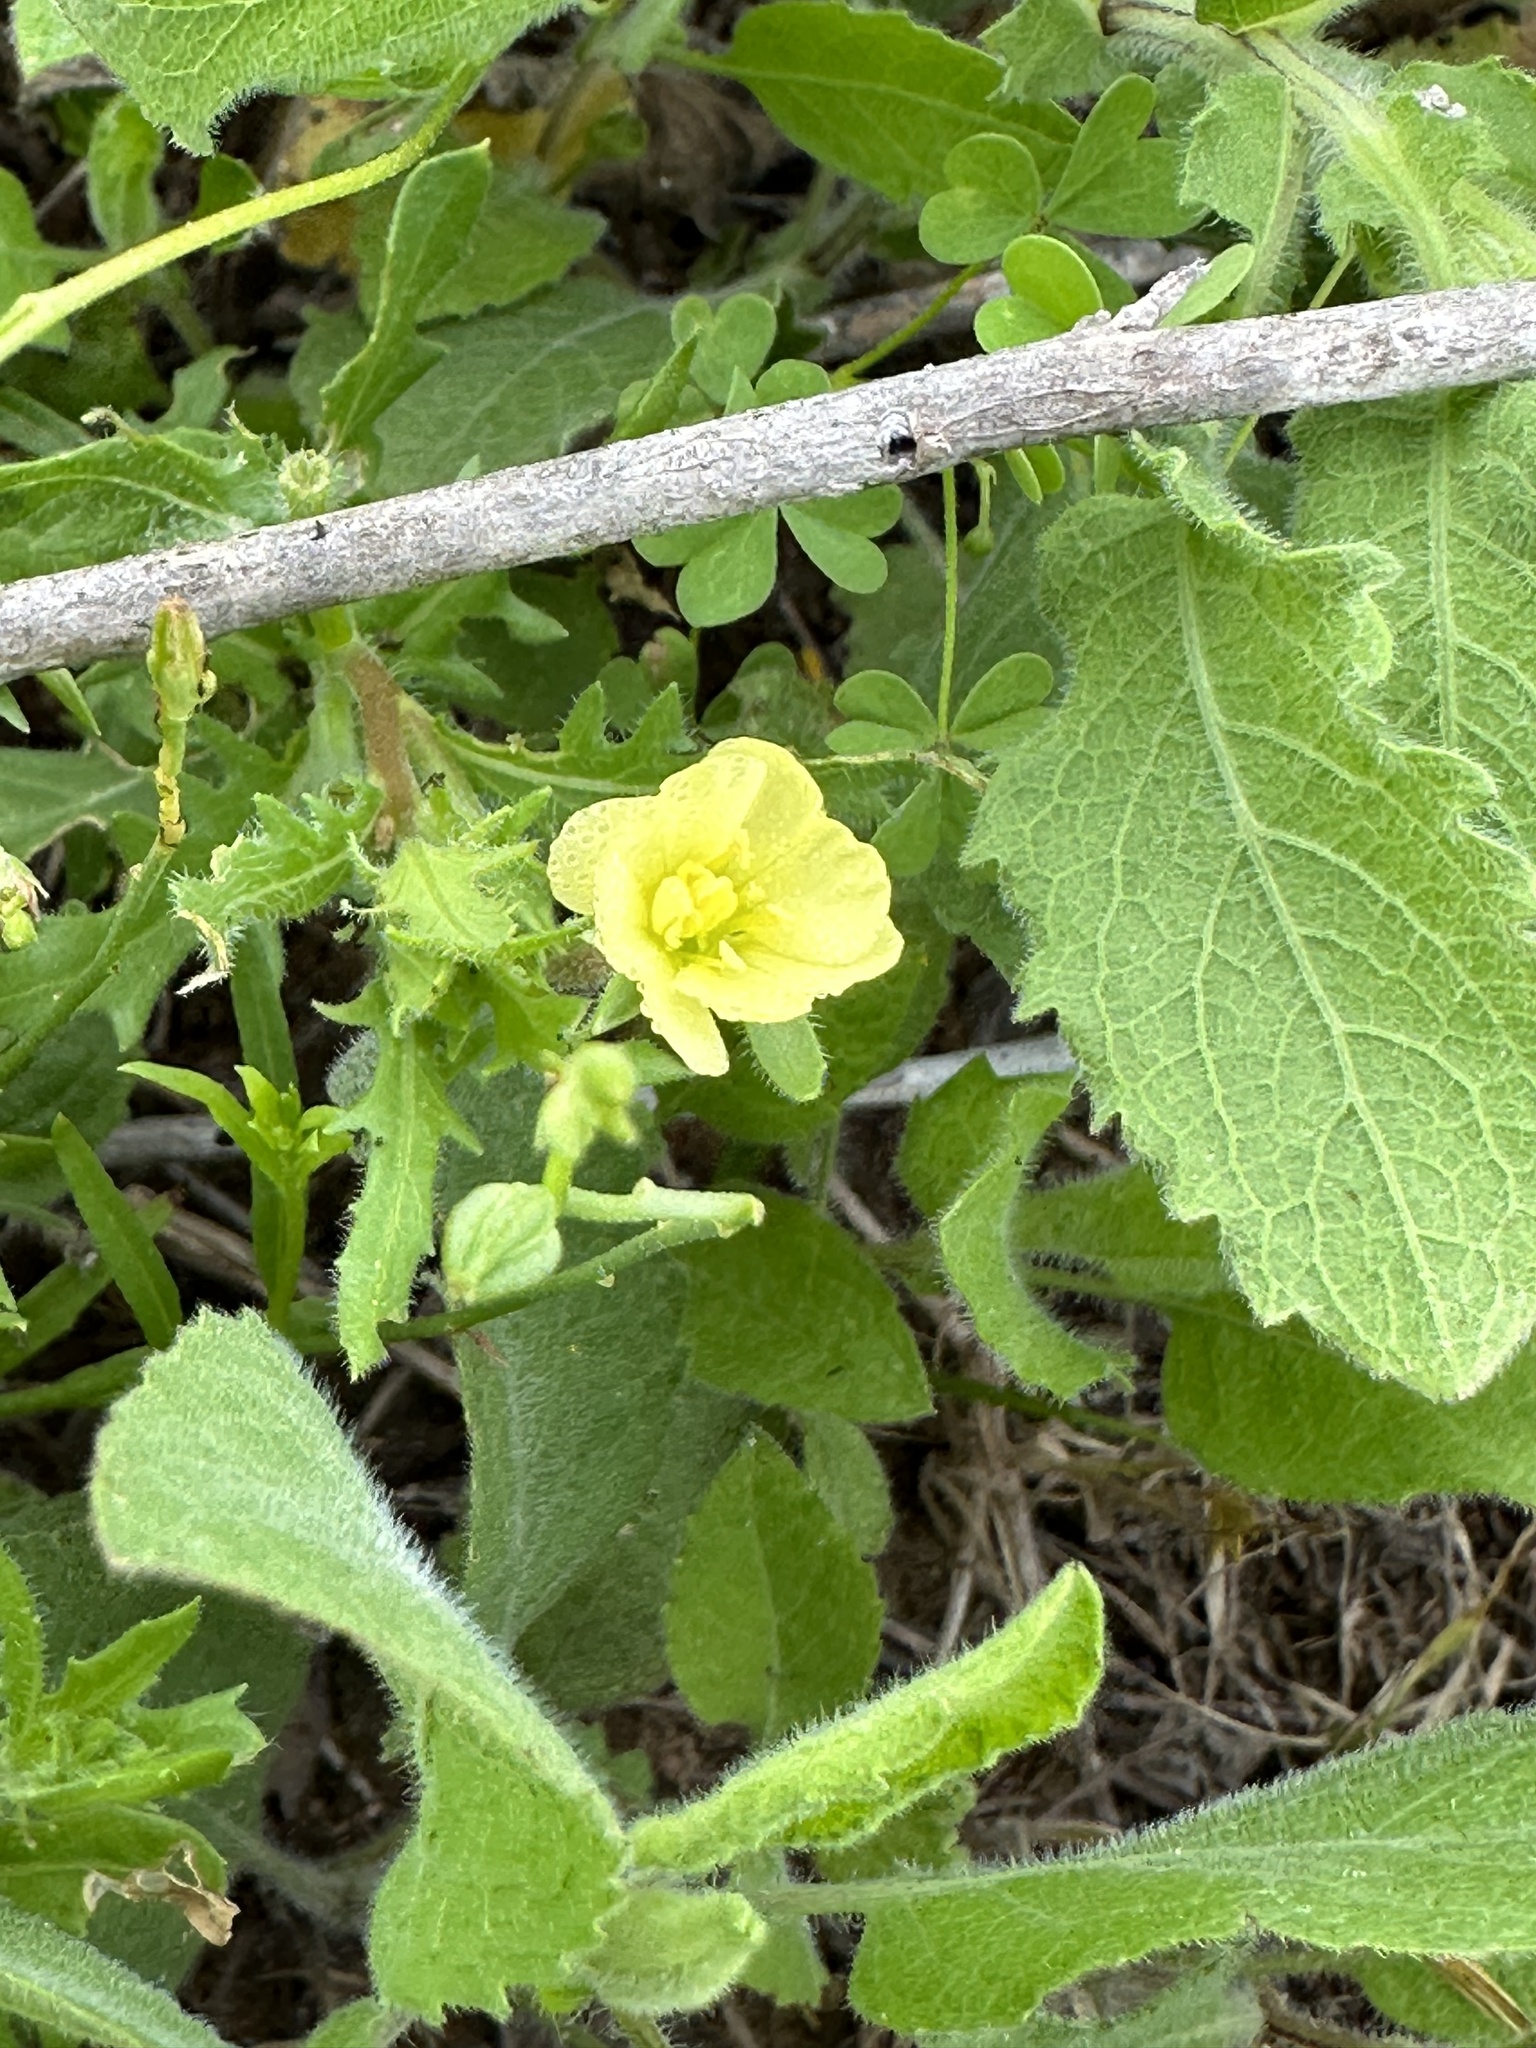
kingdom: Plantae
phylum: Tracheophyta
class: Magnoliopsida
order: Myrtales
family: Onagraceae
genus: Oenothera
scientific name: Oenothera laciniata
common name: Cut-leaved evening-primrose
